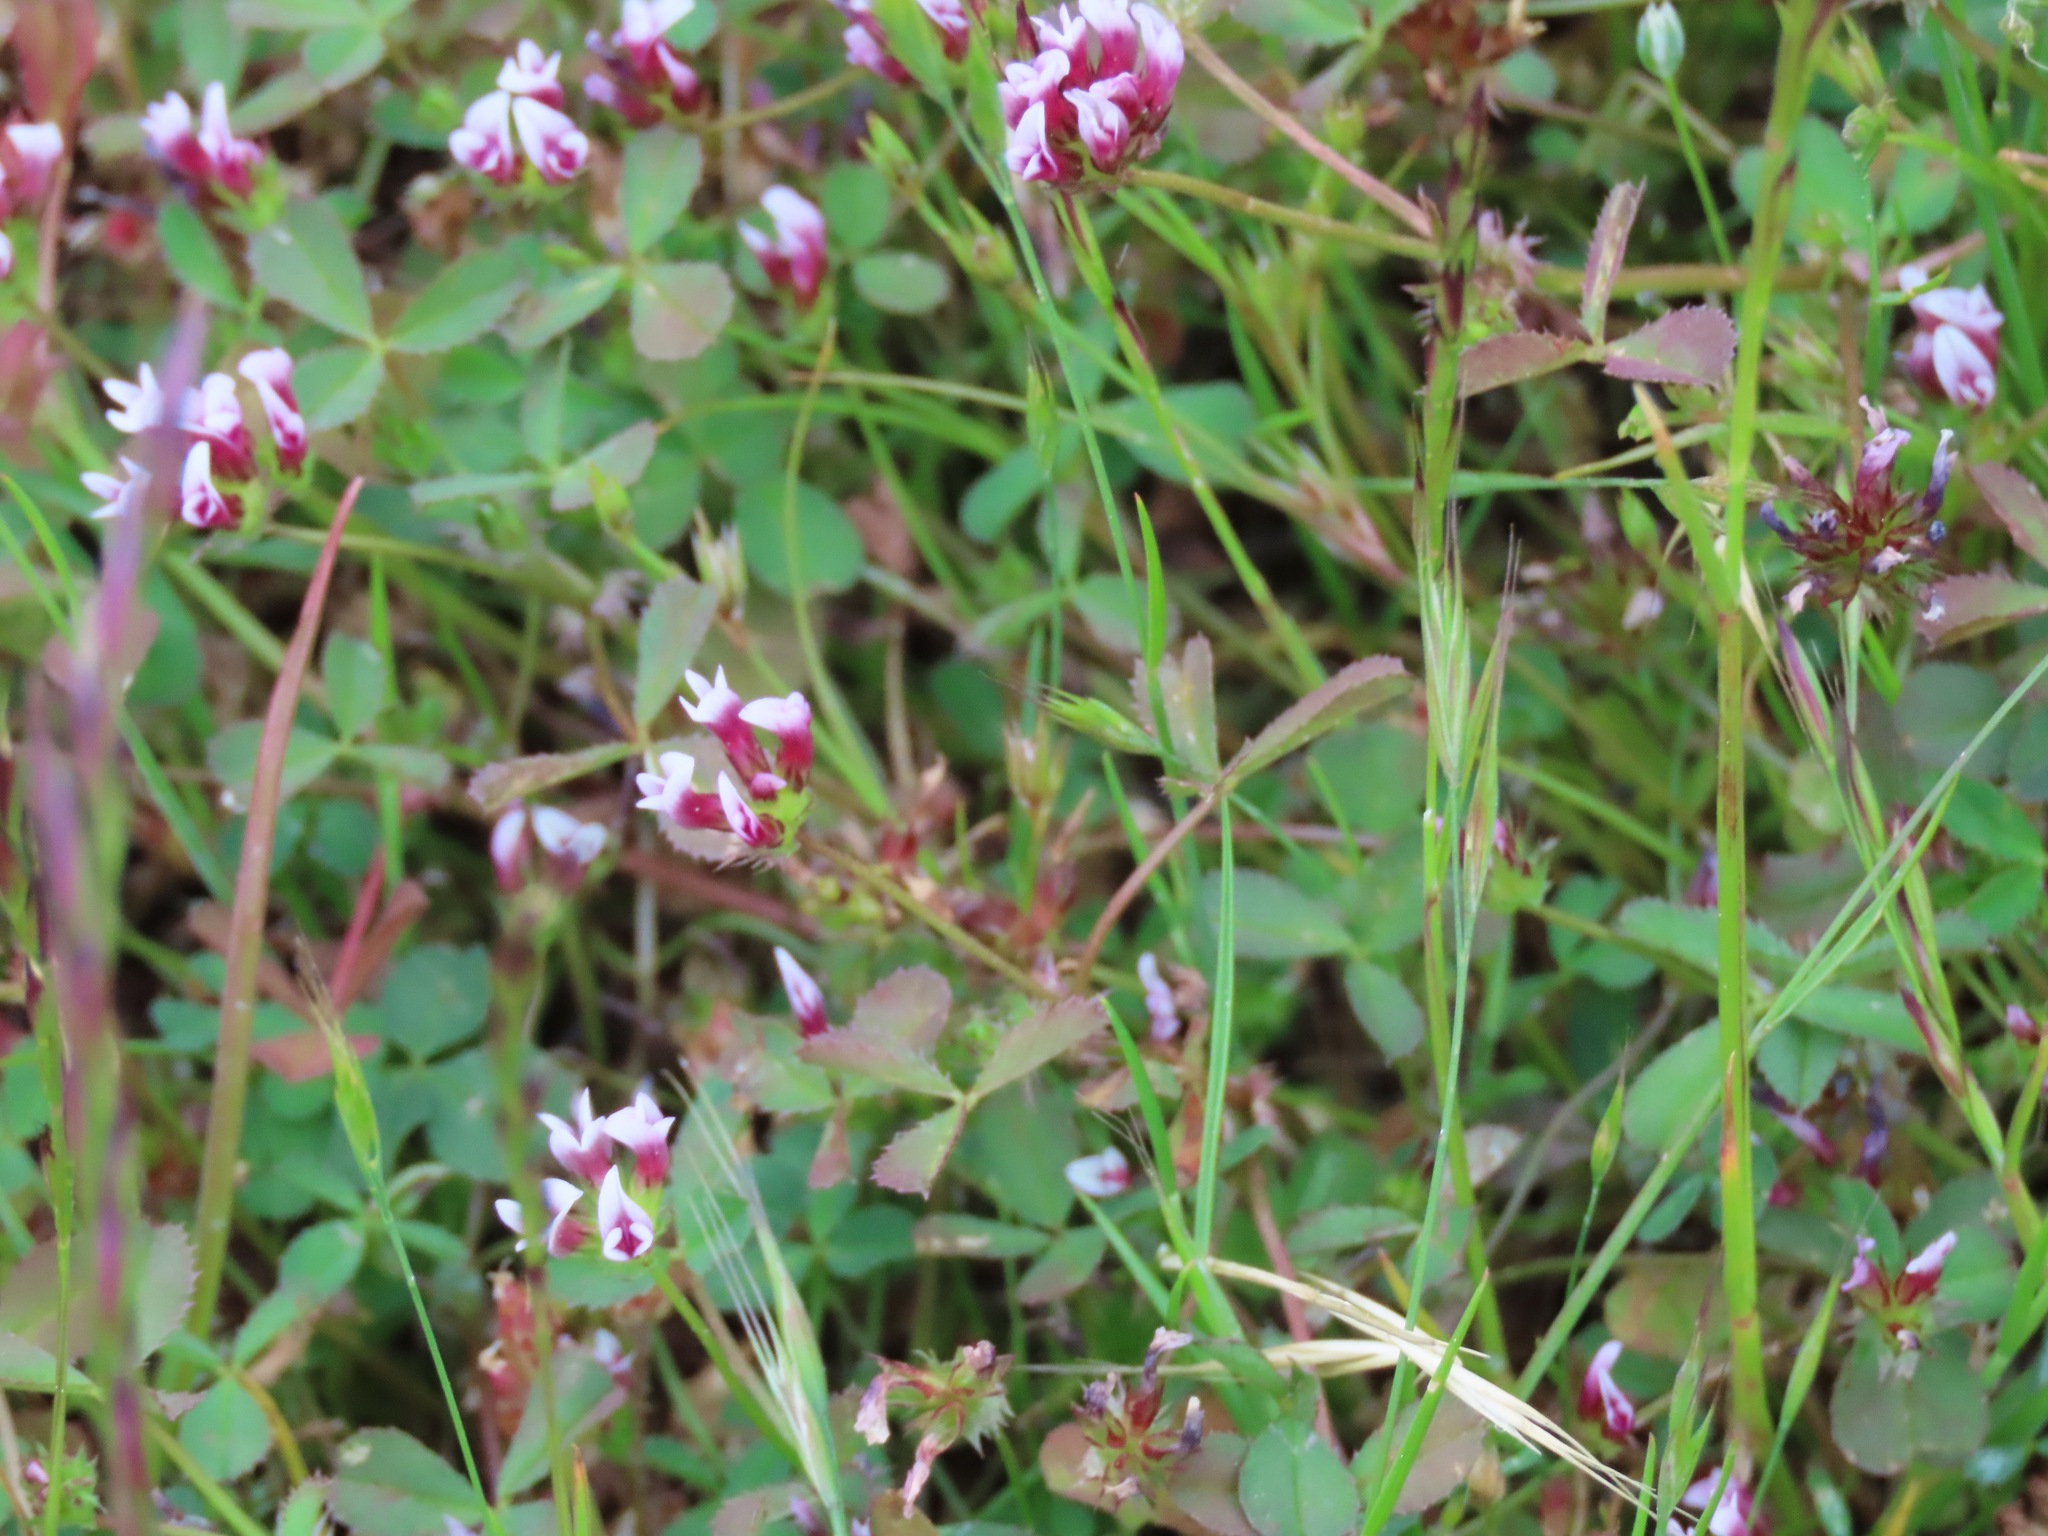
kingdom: Plantae
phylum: Tracheophyta
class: Magnoliopsida
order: Fabales
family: Fabaceae
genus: Trifolium
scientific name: Trifolium variegatum
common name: Whitetip clover
